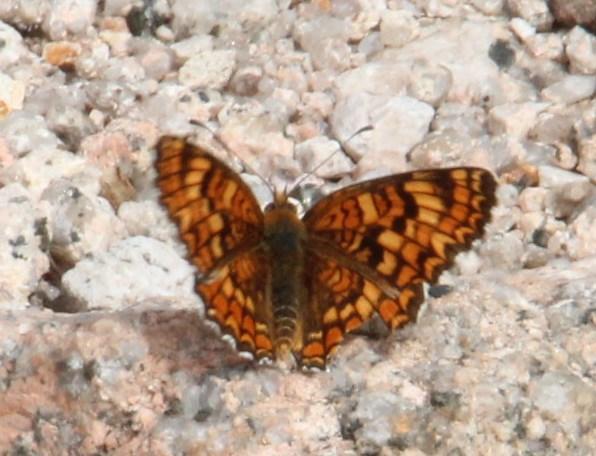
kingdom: Animalia
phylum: Arthropoda
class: Insecta
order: Lepidoptera
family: Nymphalidae
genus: Melitaea
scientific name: Melitaea phoebe
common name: Knapweed fritillary
